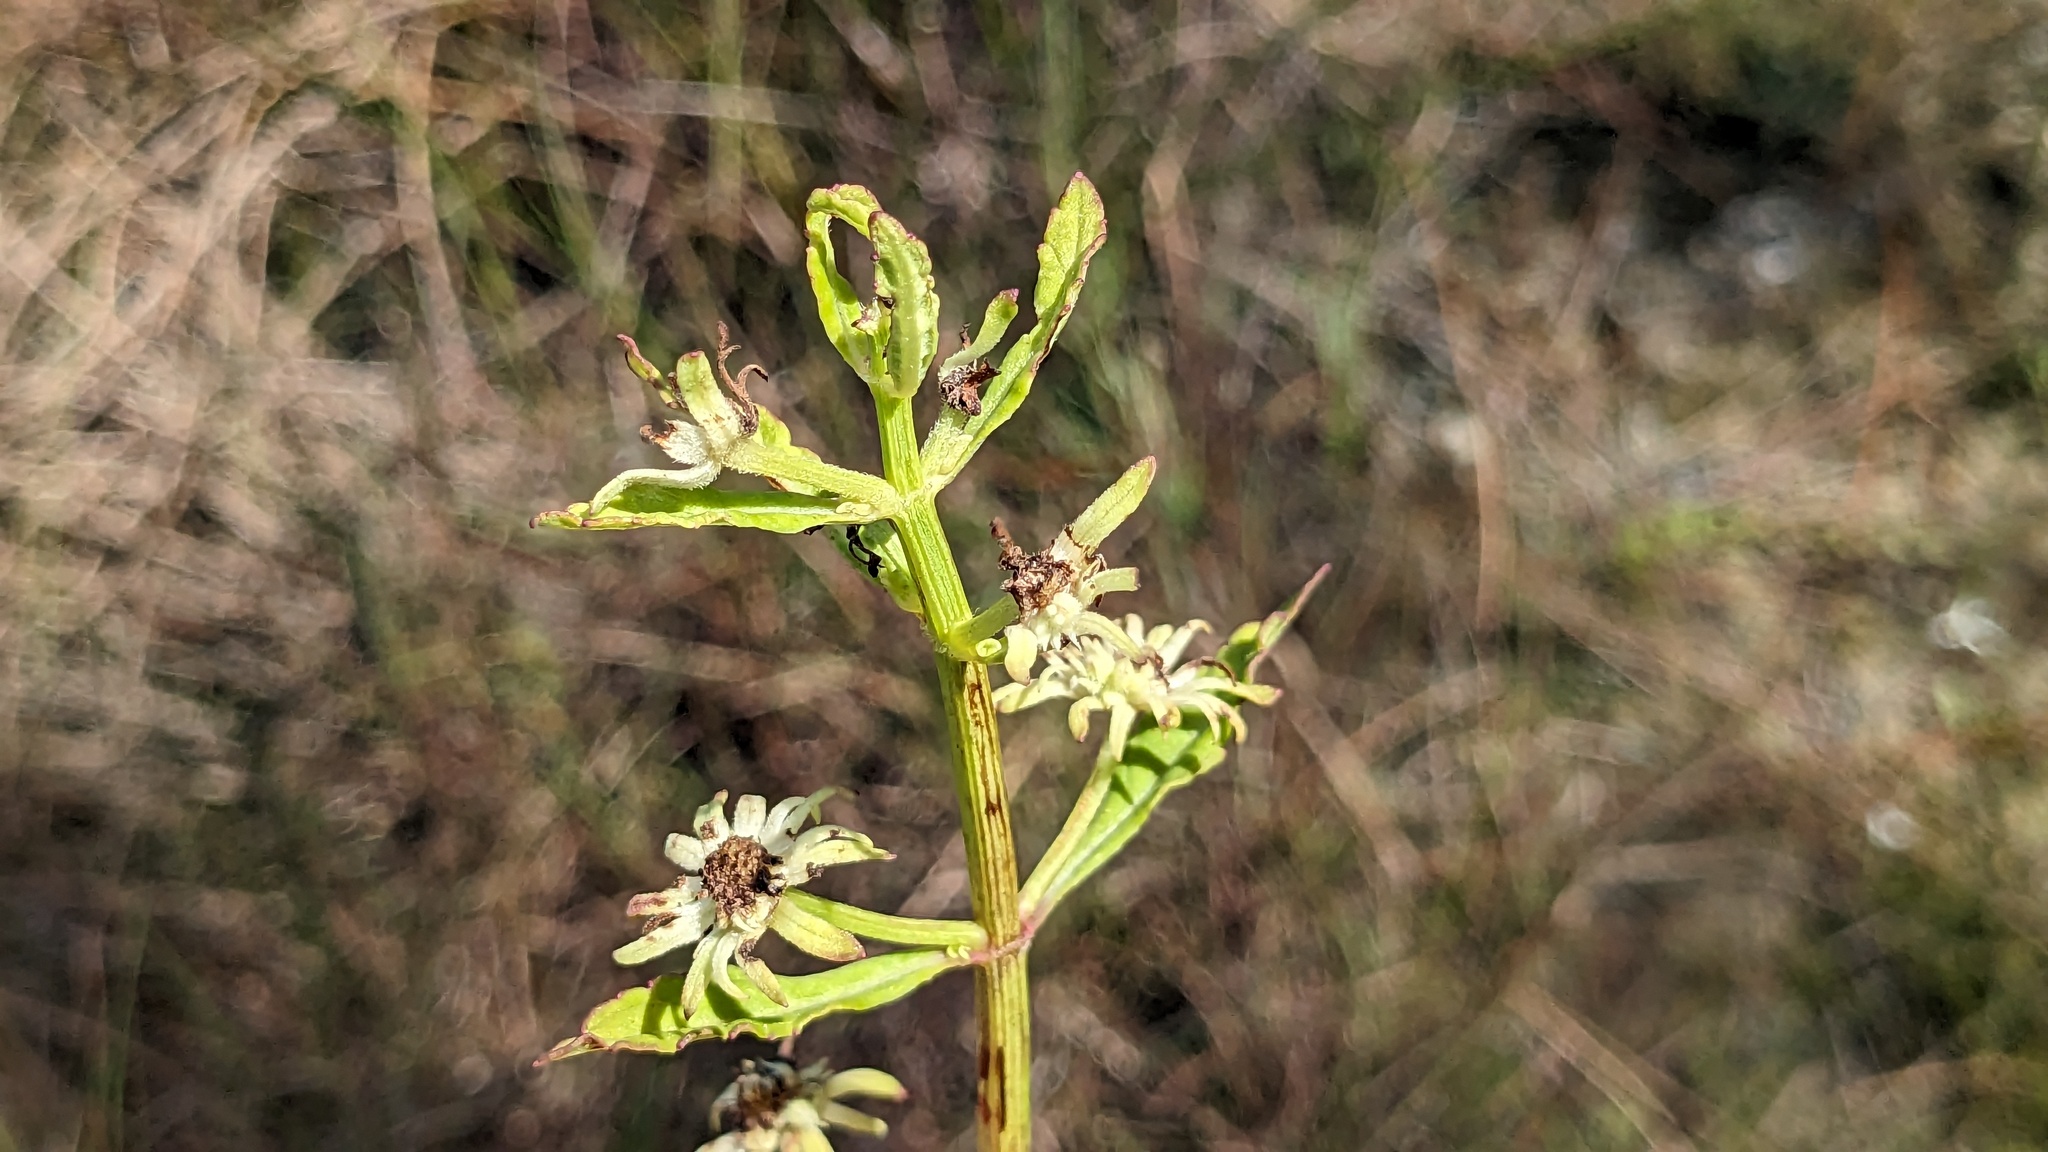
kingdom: Plantae
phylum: Tracheophyta
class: Magnoliopsida
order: Lamiales
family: Lamiaceae
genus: Hyptis
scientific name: Hyptis alata
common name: Cluster bush-mint
